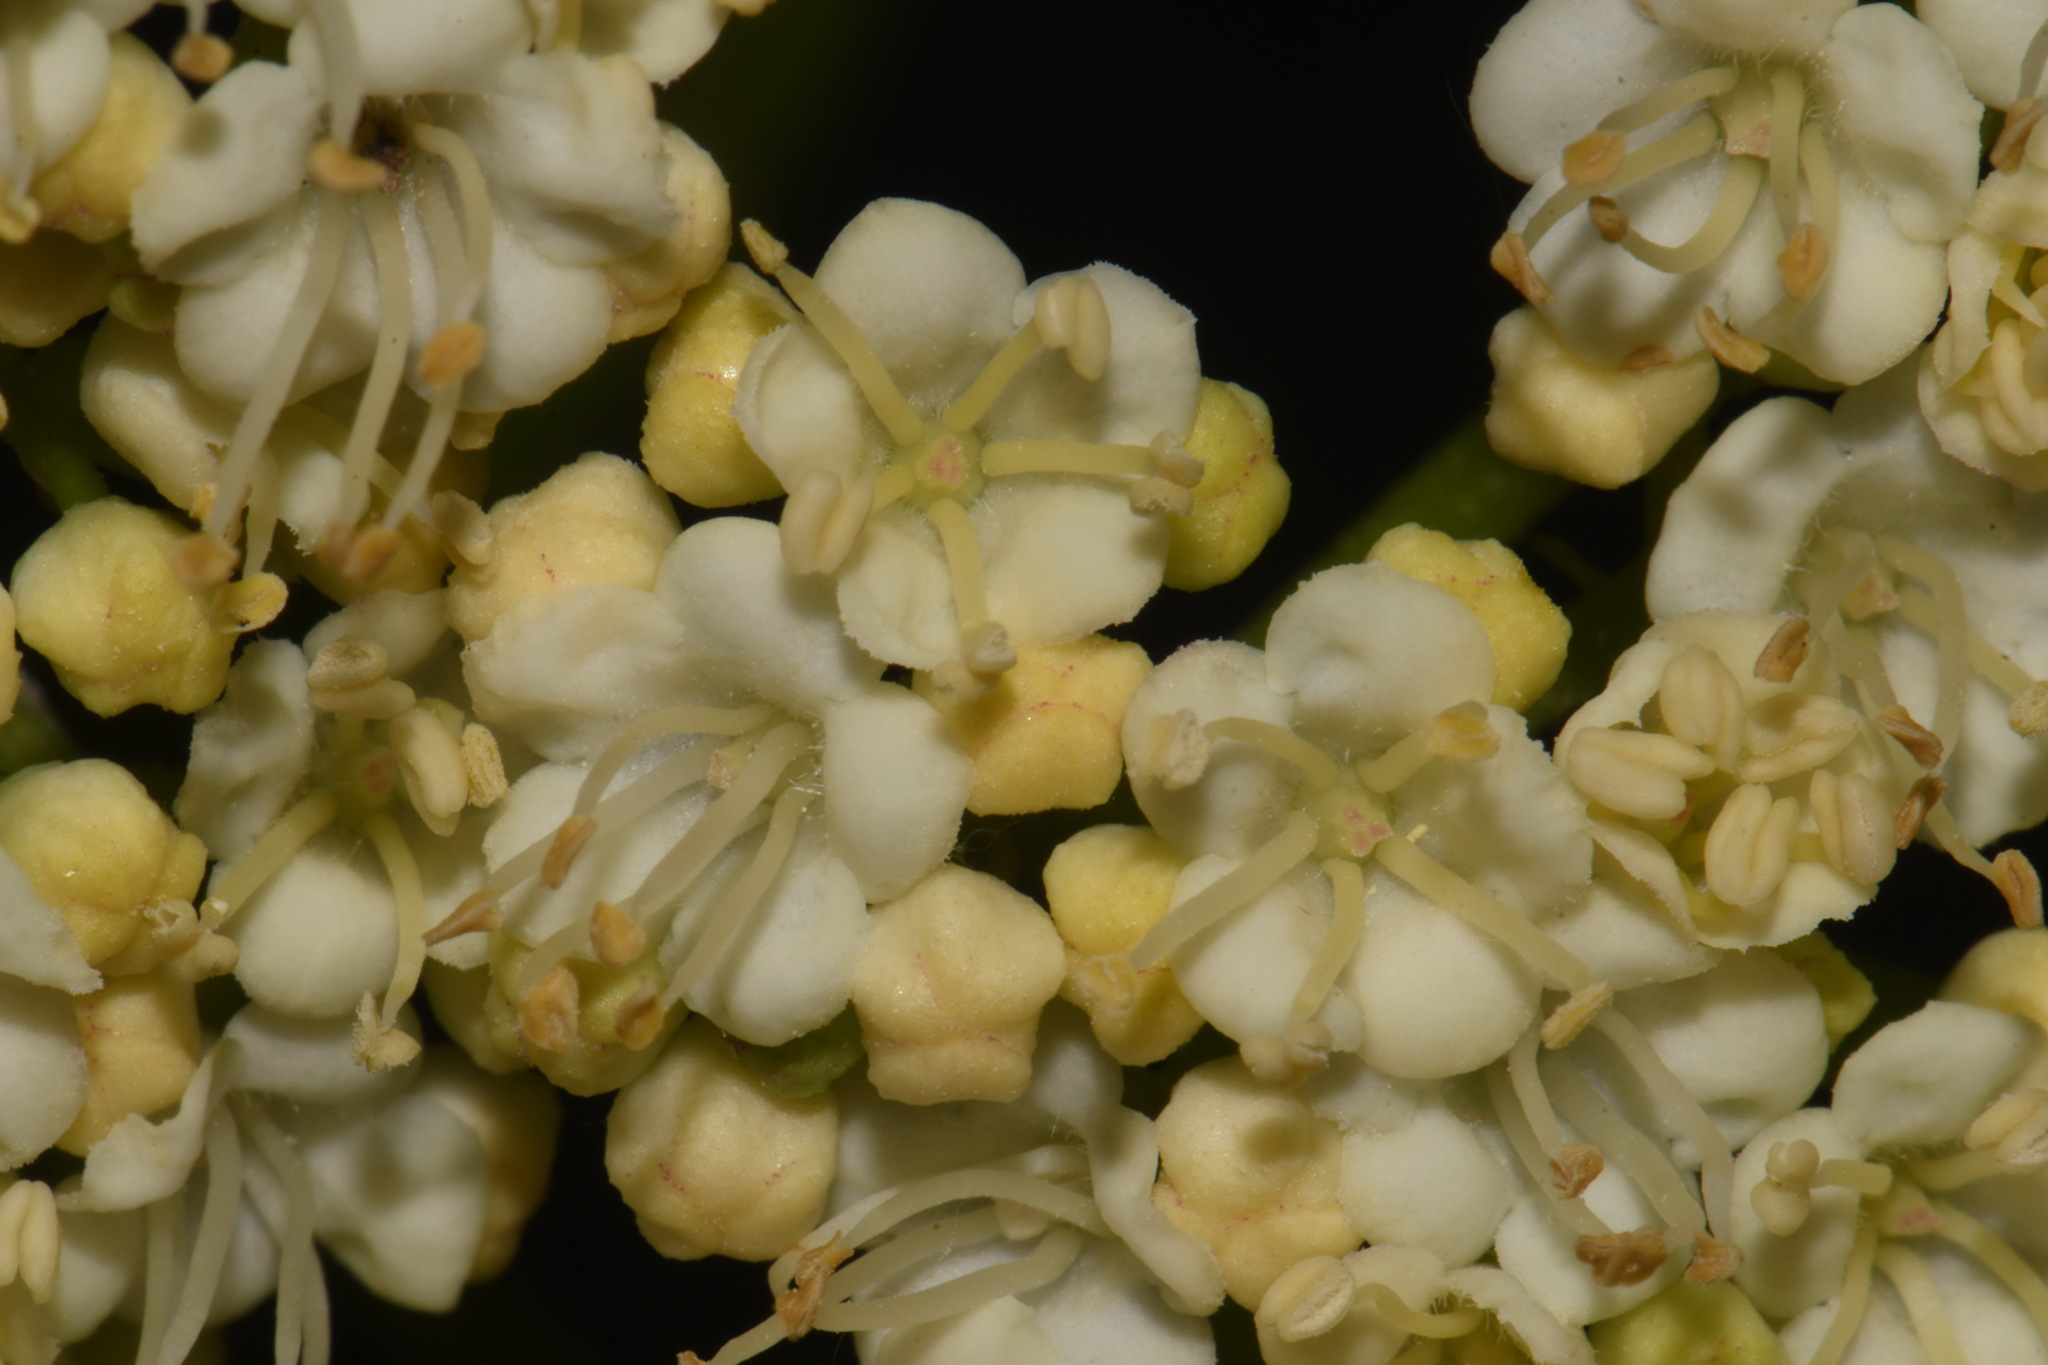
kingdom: Plantae
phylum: Tracheophyta
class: Magnoliopsida
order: Dipsacales
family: Viburnaceae
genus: Viburnum
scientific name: Viburnum opulus
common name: Guelder-rose
